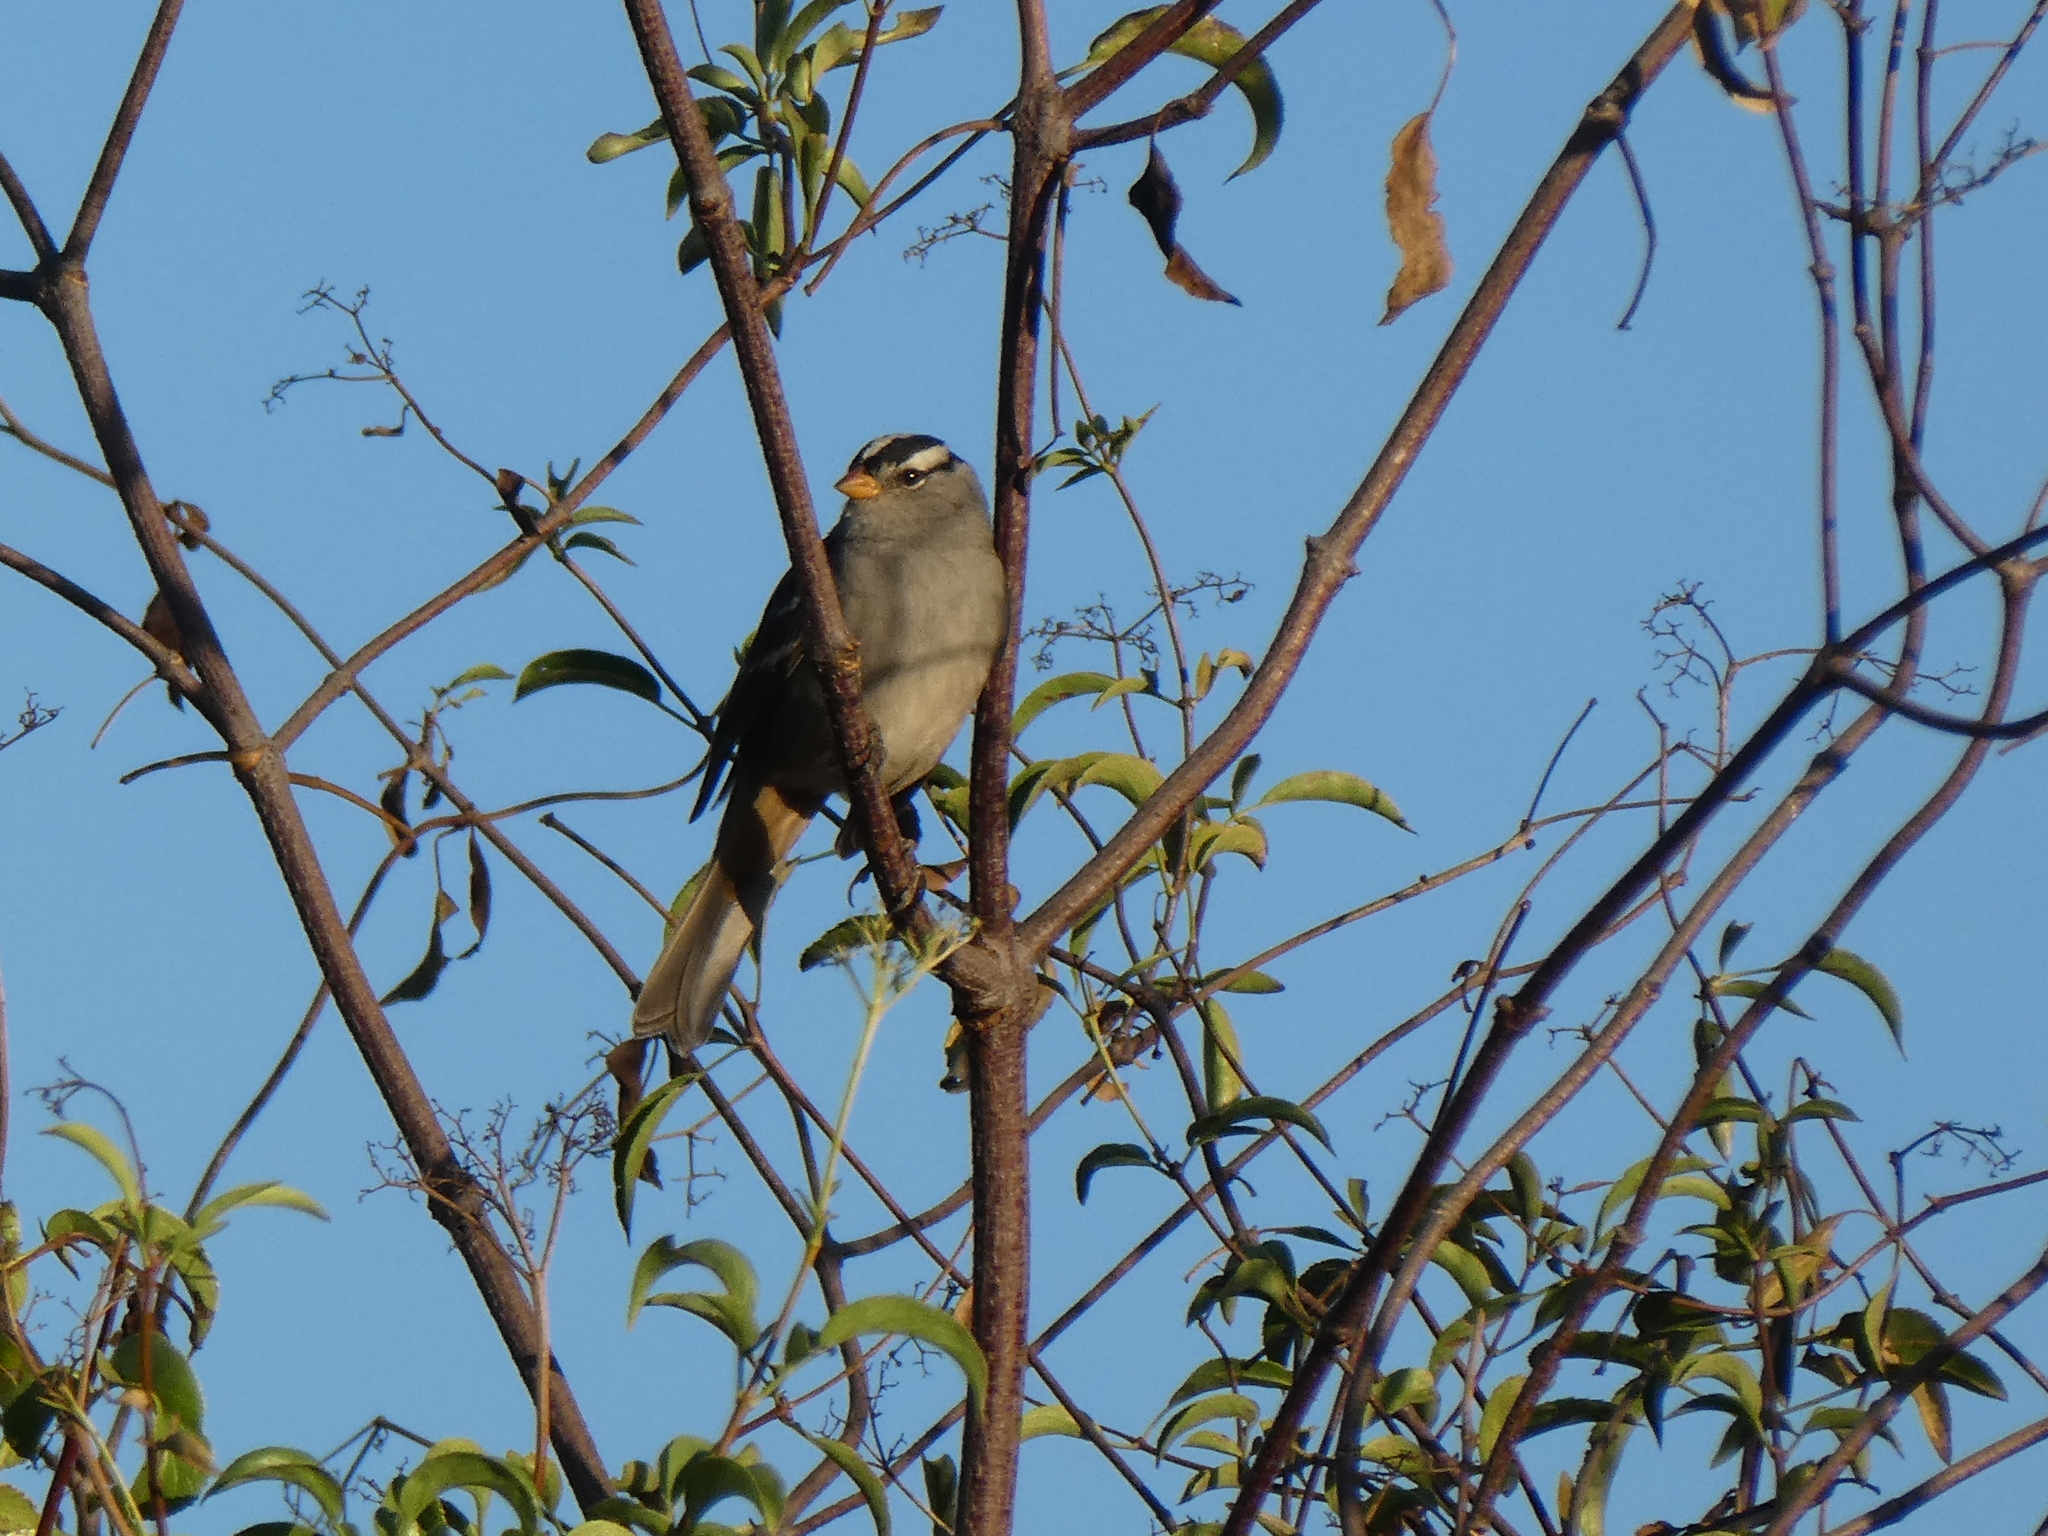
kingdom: Animalia
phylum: Chordata
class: Aves
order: Passeriformes
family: Passerellidae
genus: Zonotrichia
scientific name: Zonotrichia leucophrys
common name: White-crowned sparrow
